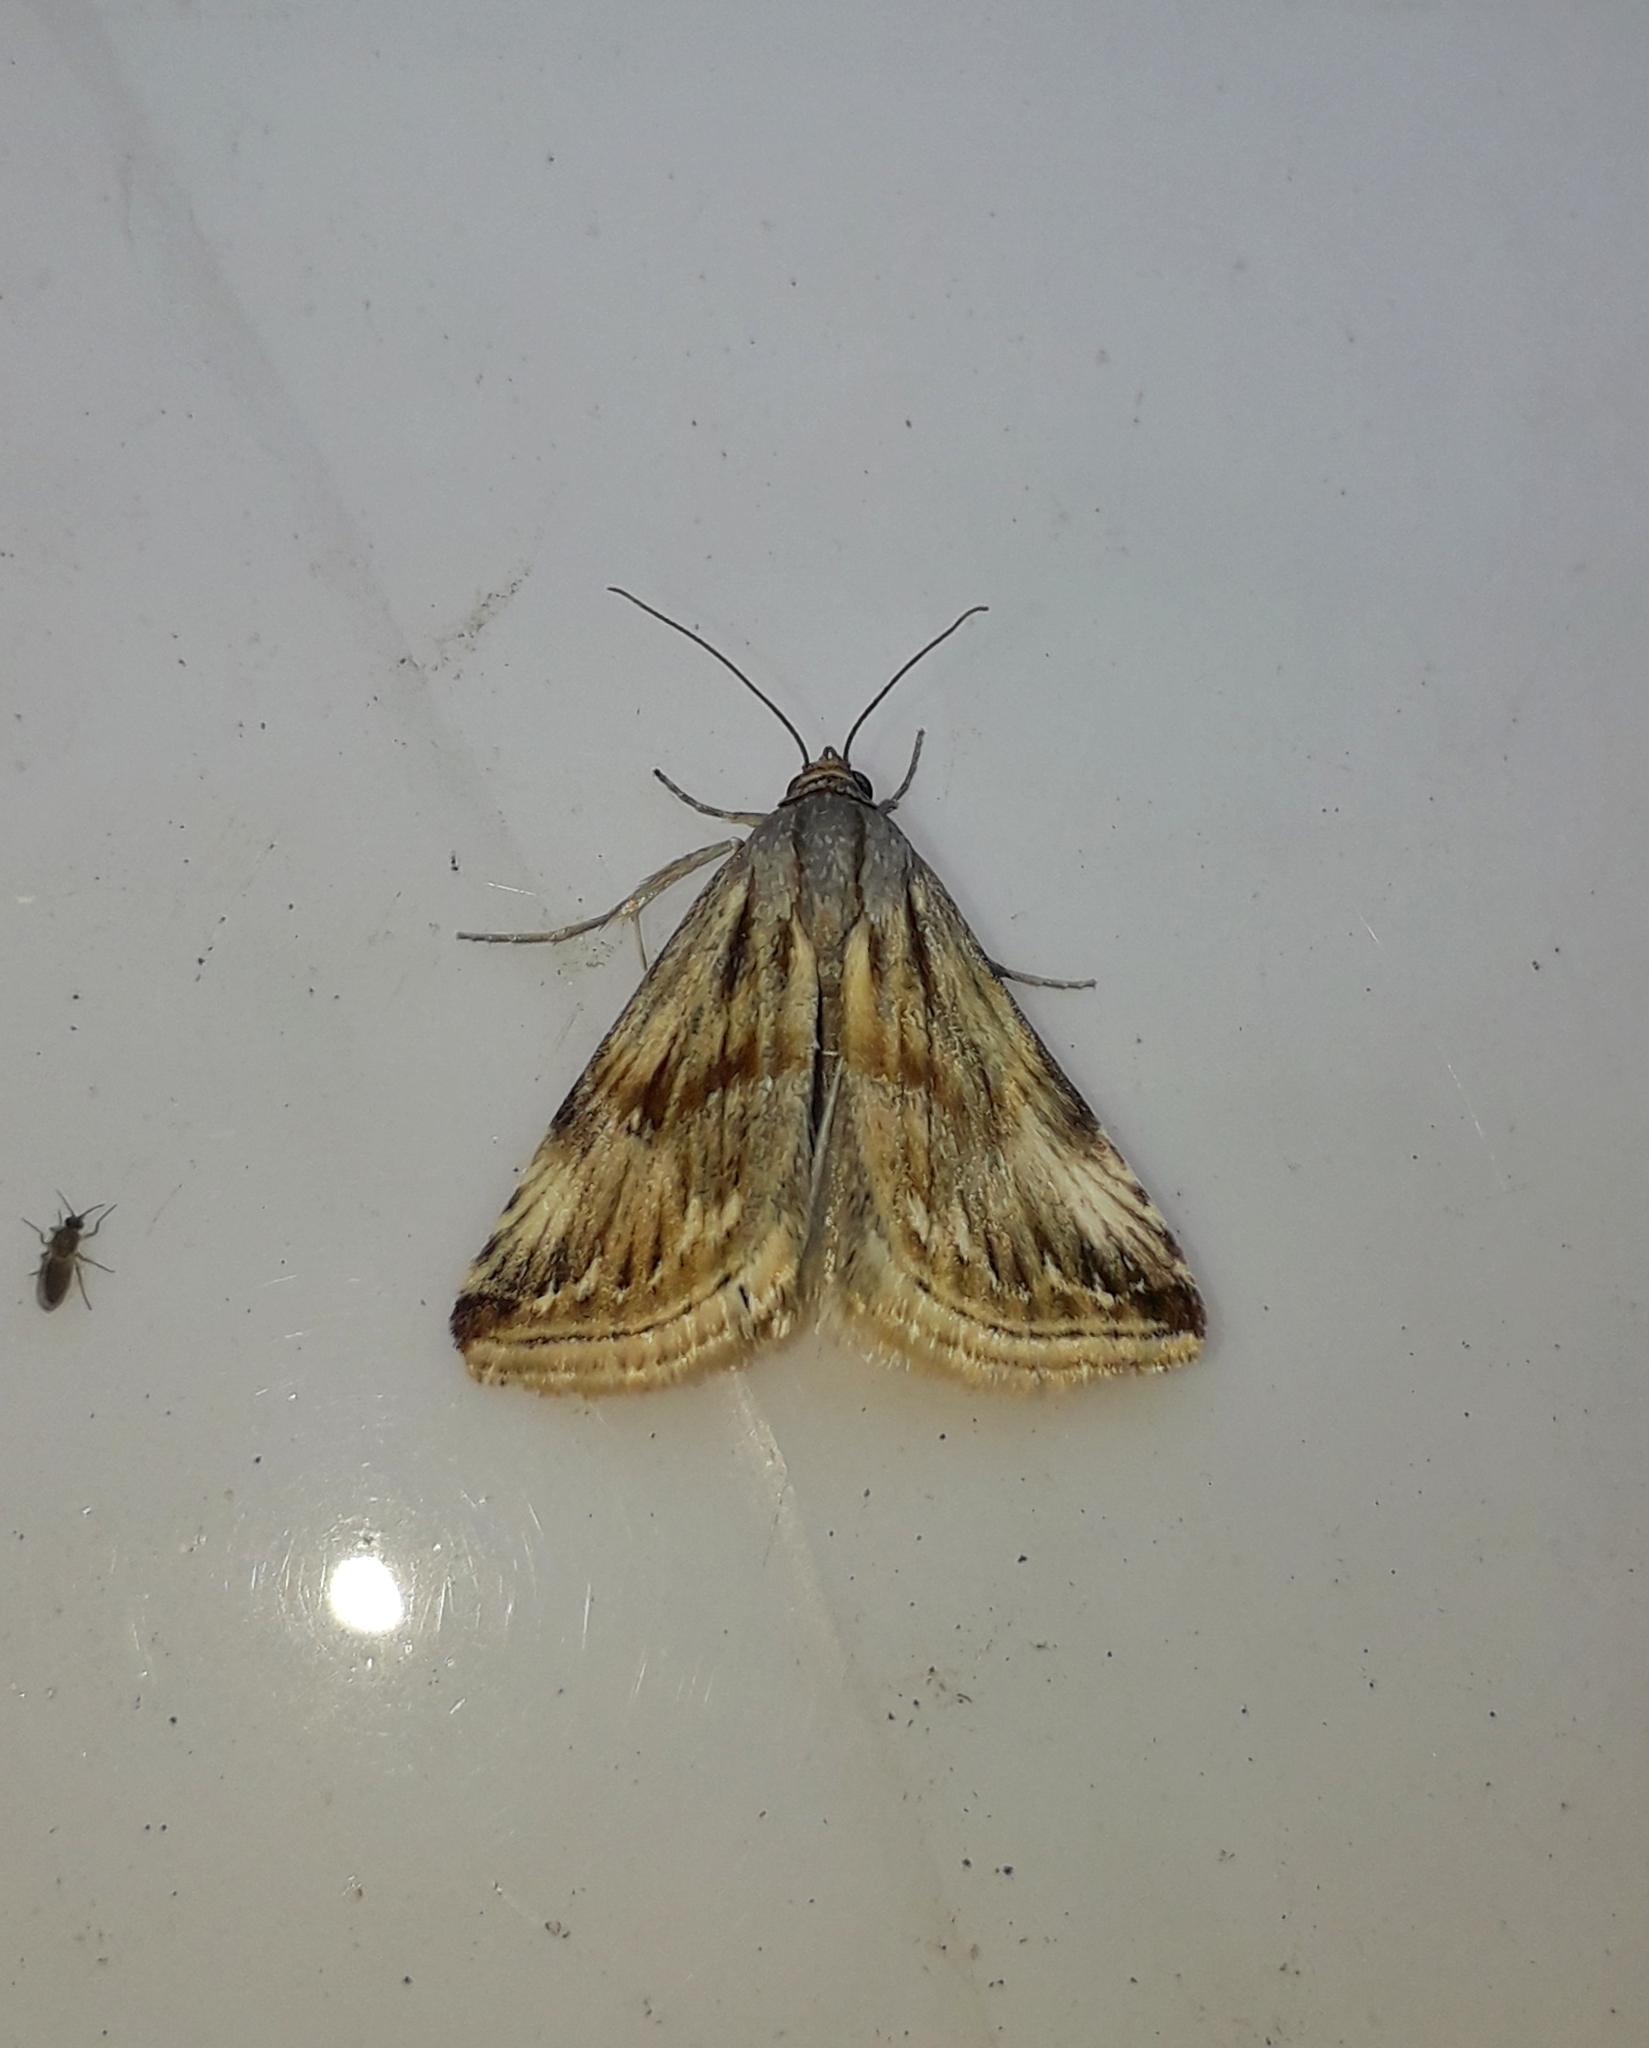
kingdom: Animalia
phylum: Arthropoda
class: Insecta
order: Lepidoptera
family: Noctuidae
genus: Eublemma
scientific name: Eublemma ostrina
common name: Purple marbled
